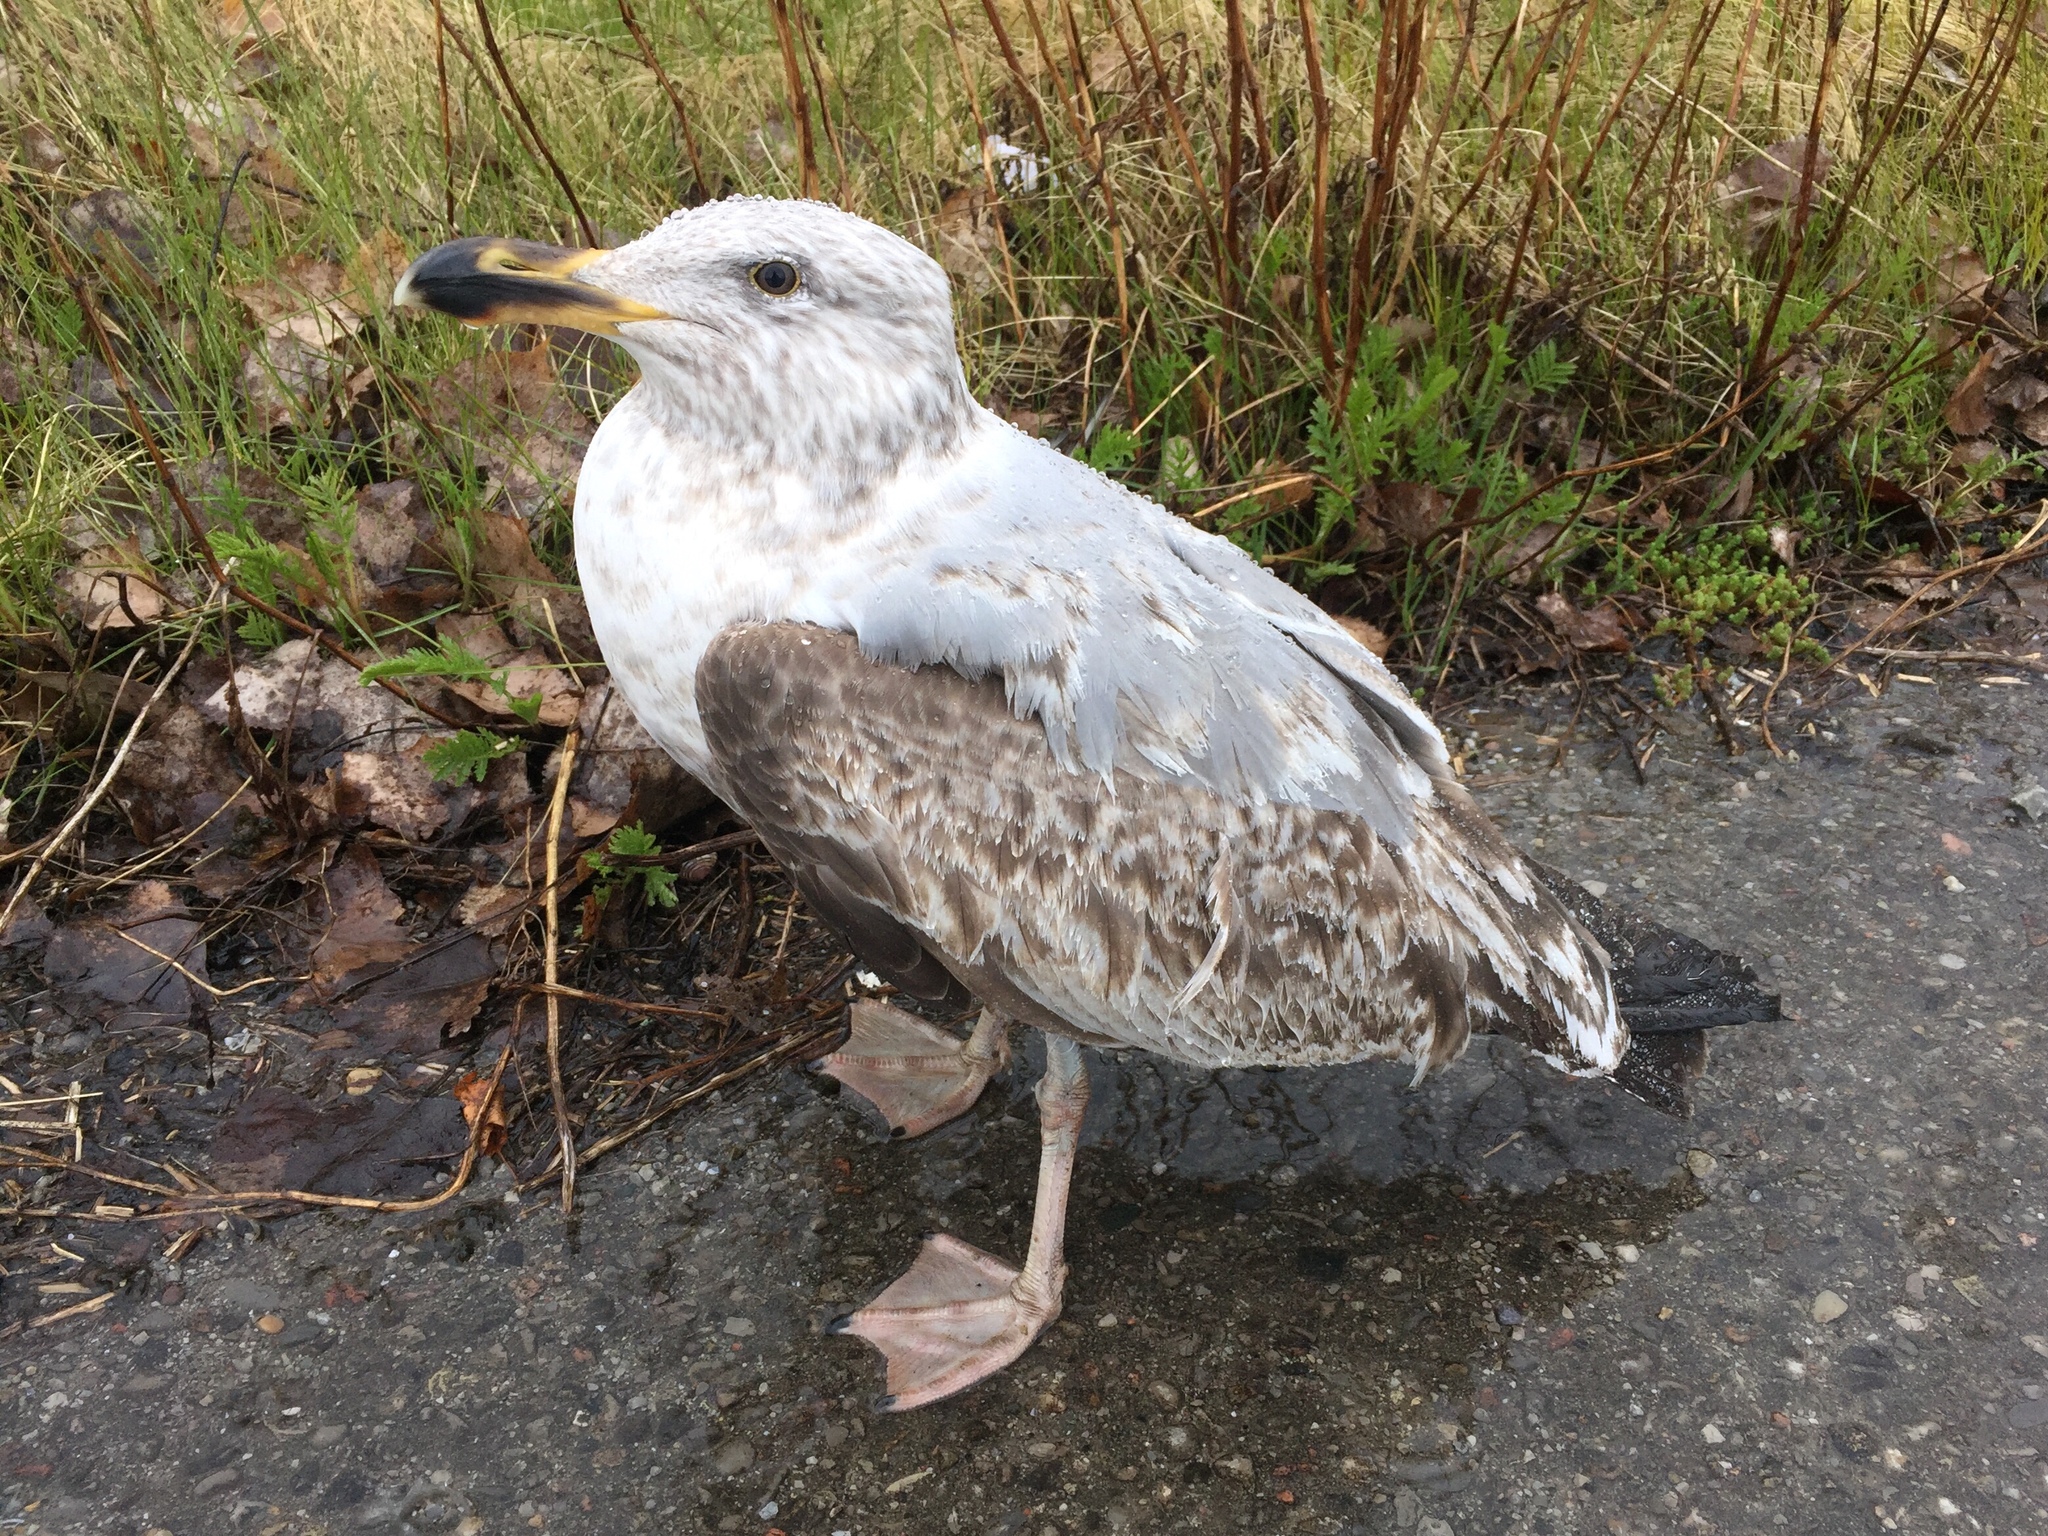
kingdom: Animalia
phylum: Chordata
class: Aves
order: Charadriiformes
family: Laridae
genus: Larus
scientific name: Larus argentatus
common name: Herring gull
